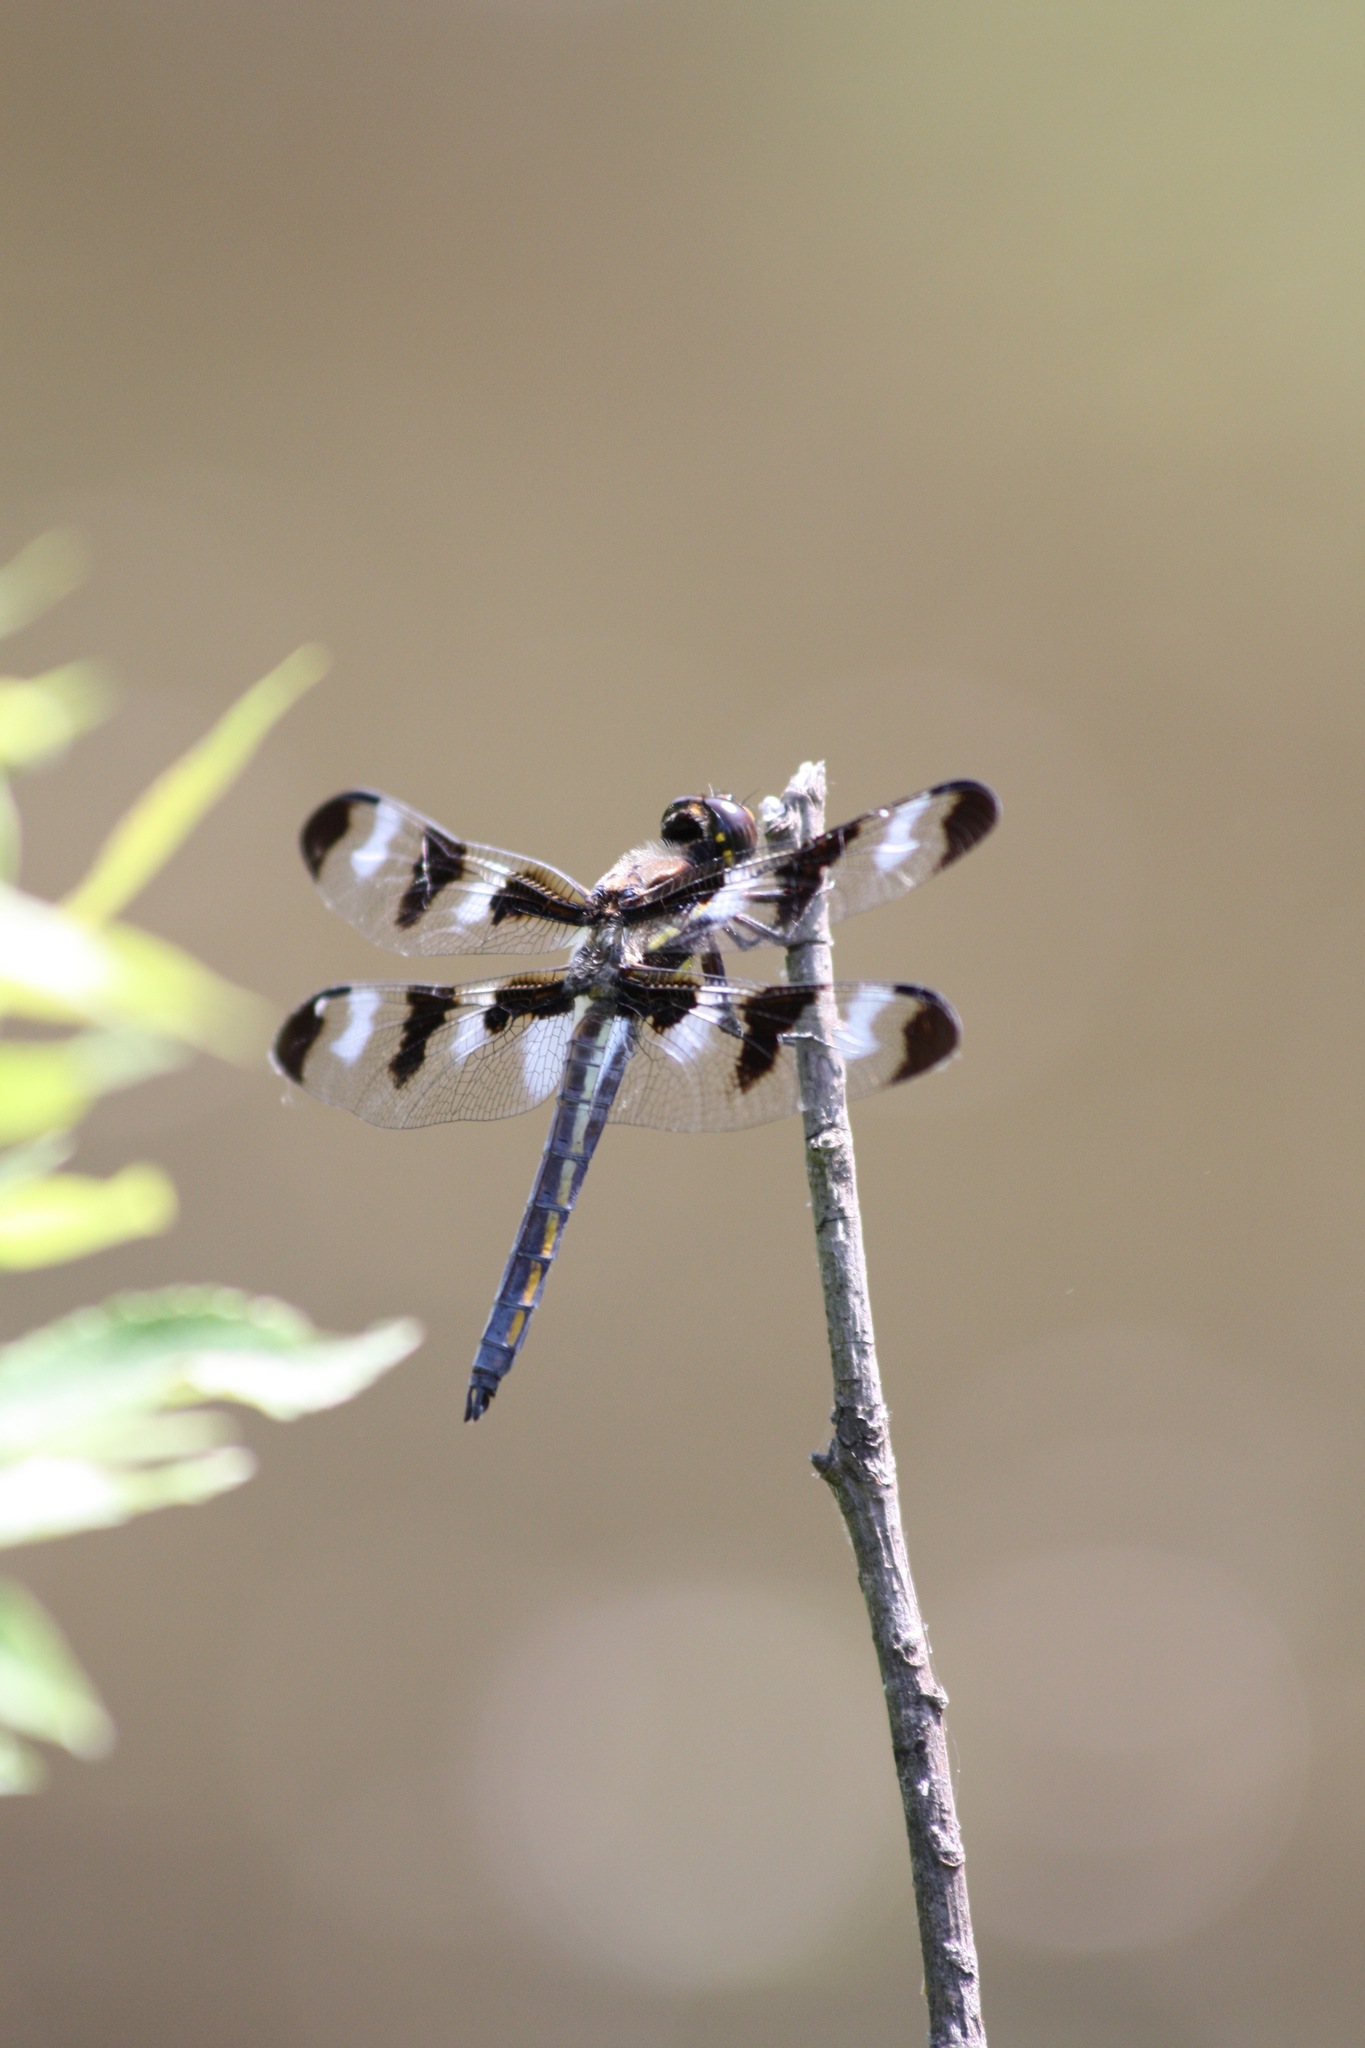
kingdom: Animalia
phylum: Arthropoda
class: Insecta
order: Odonata
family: Libellulidae
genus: Libellula
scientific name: Libellula pulchella
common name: Twelve-spotted skimmer
